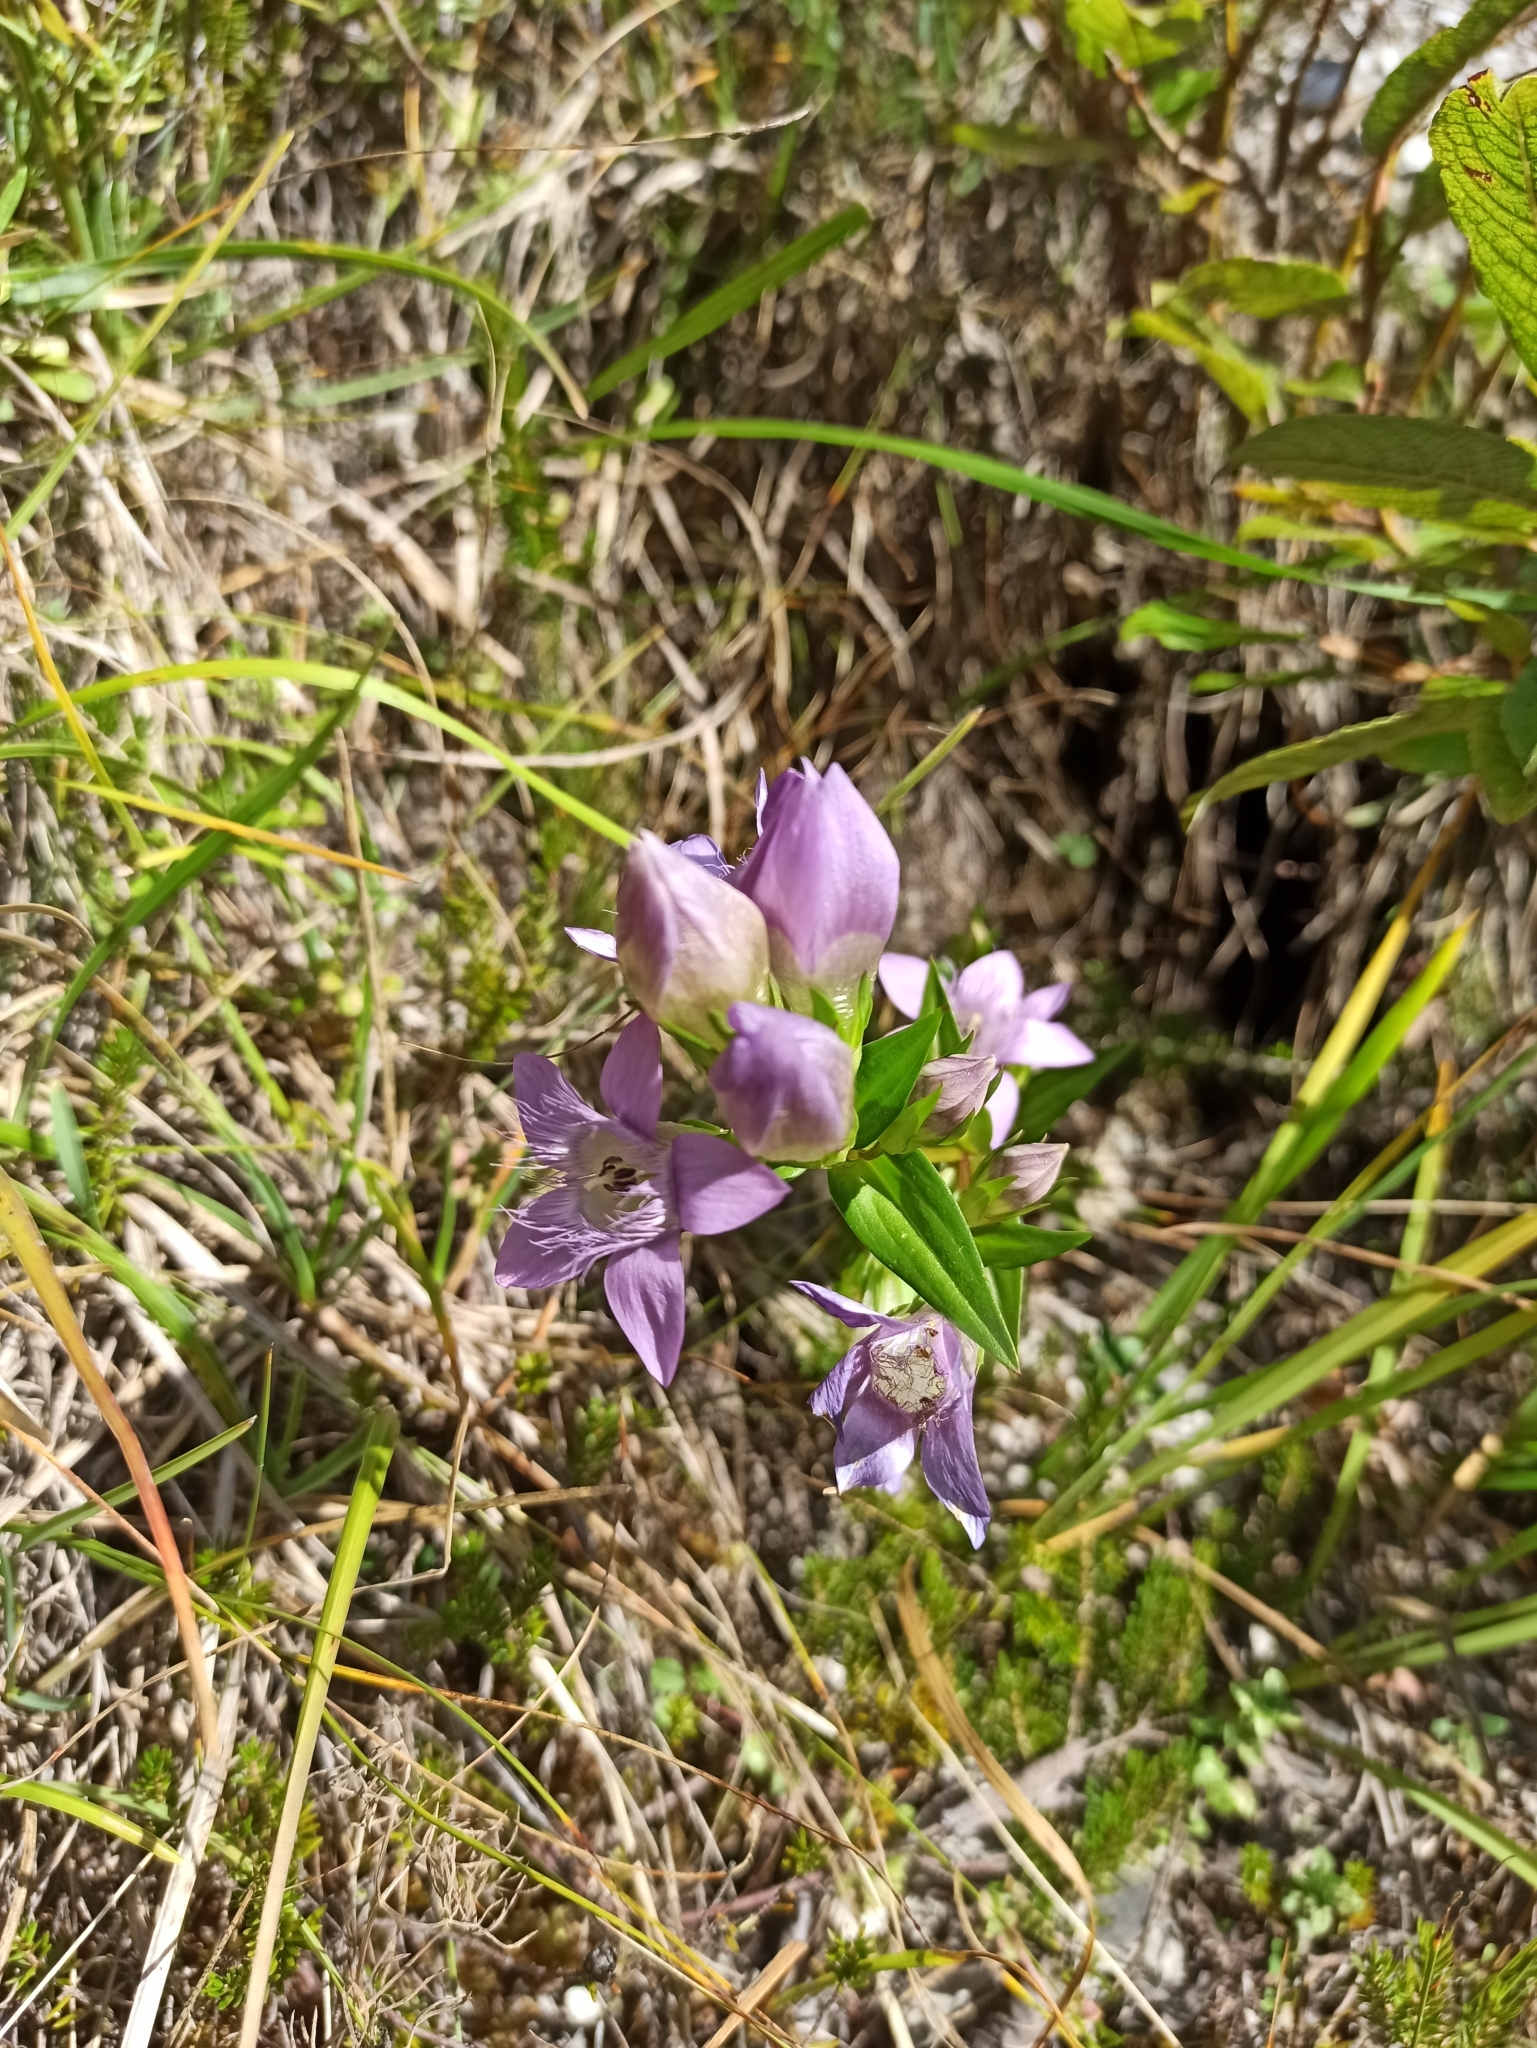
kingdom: Plantae
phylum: Tracheophyta
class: Magnoliopsida
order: Gentianales
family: Gentianaceae
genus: Gentianella
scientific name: Gentianella
